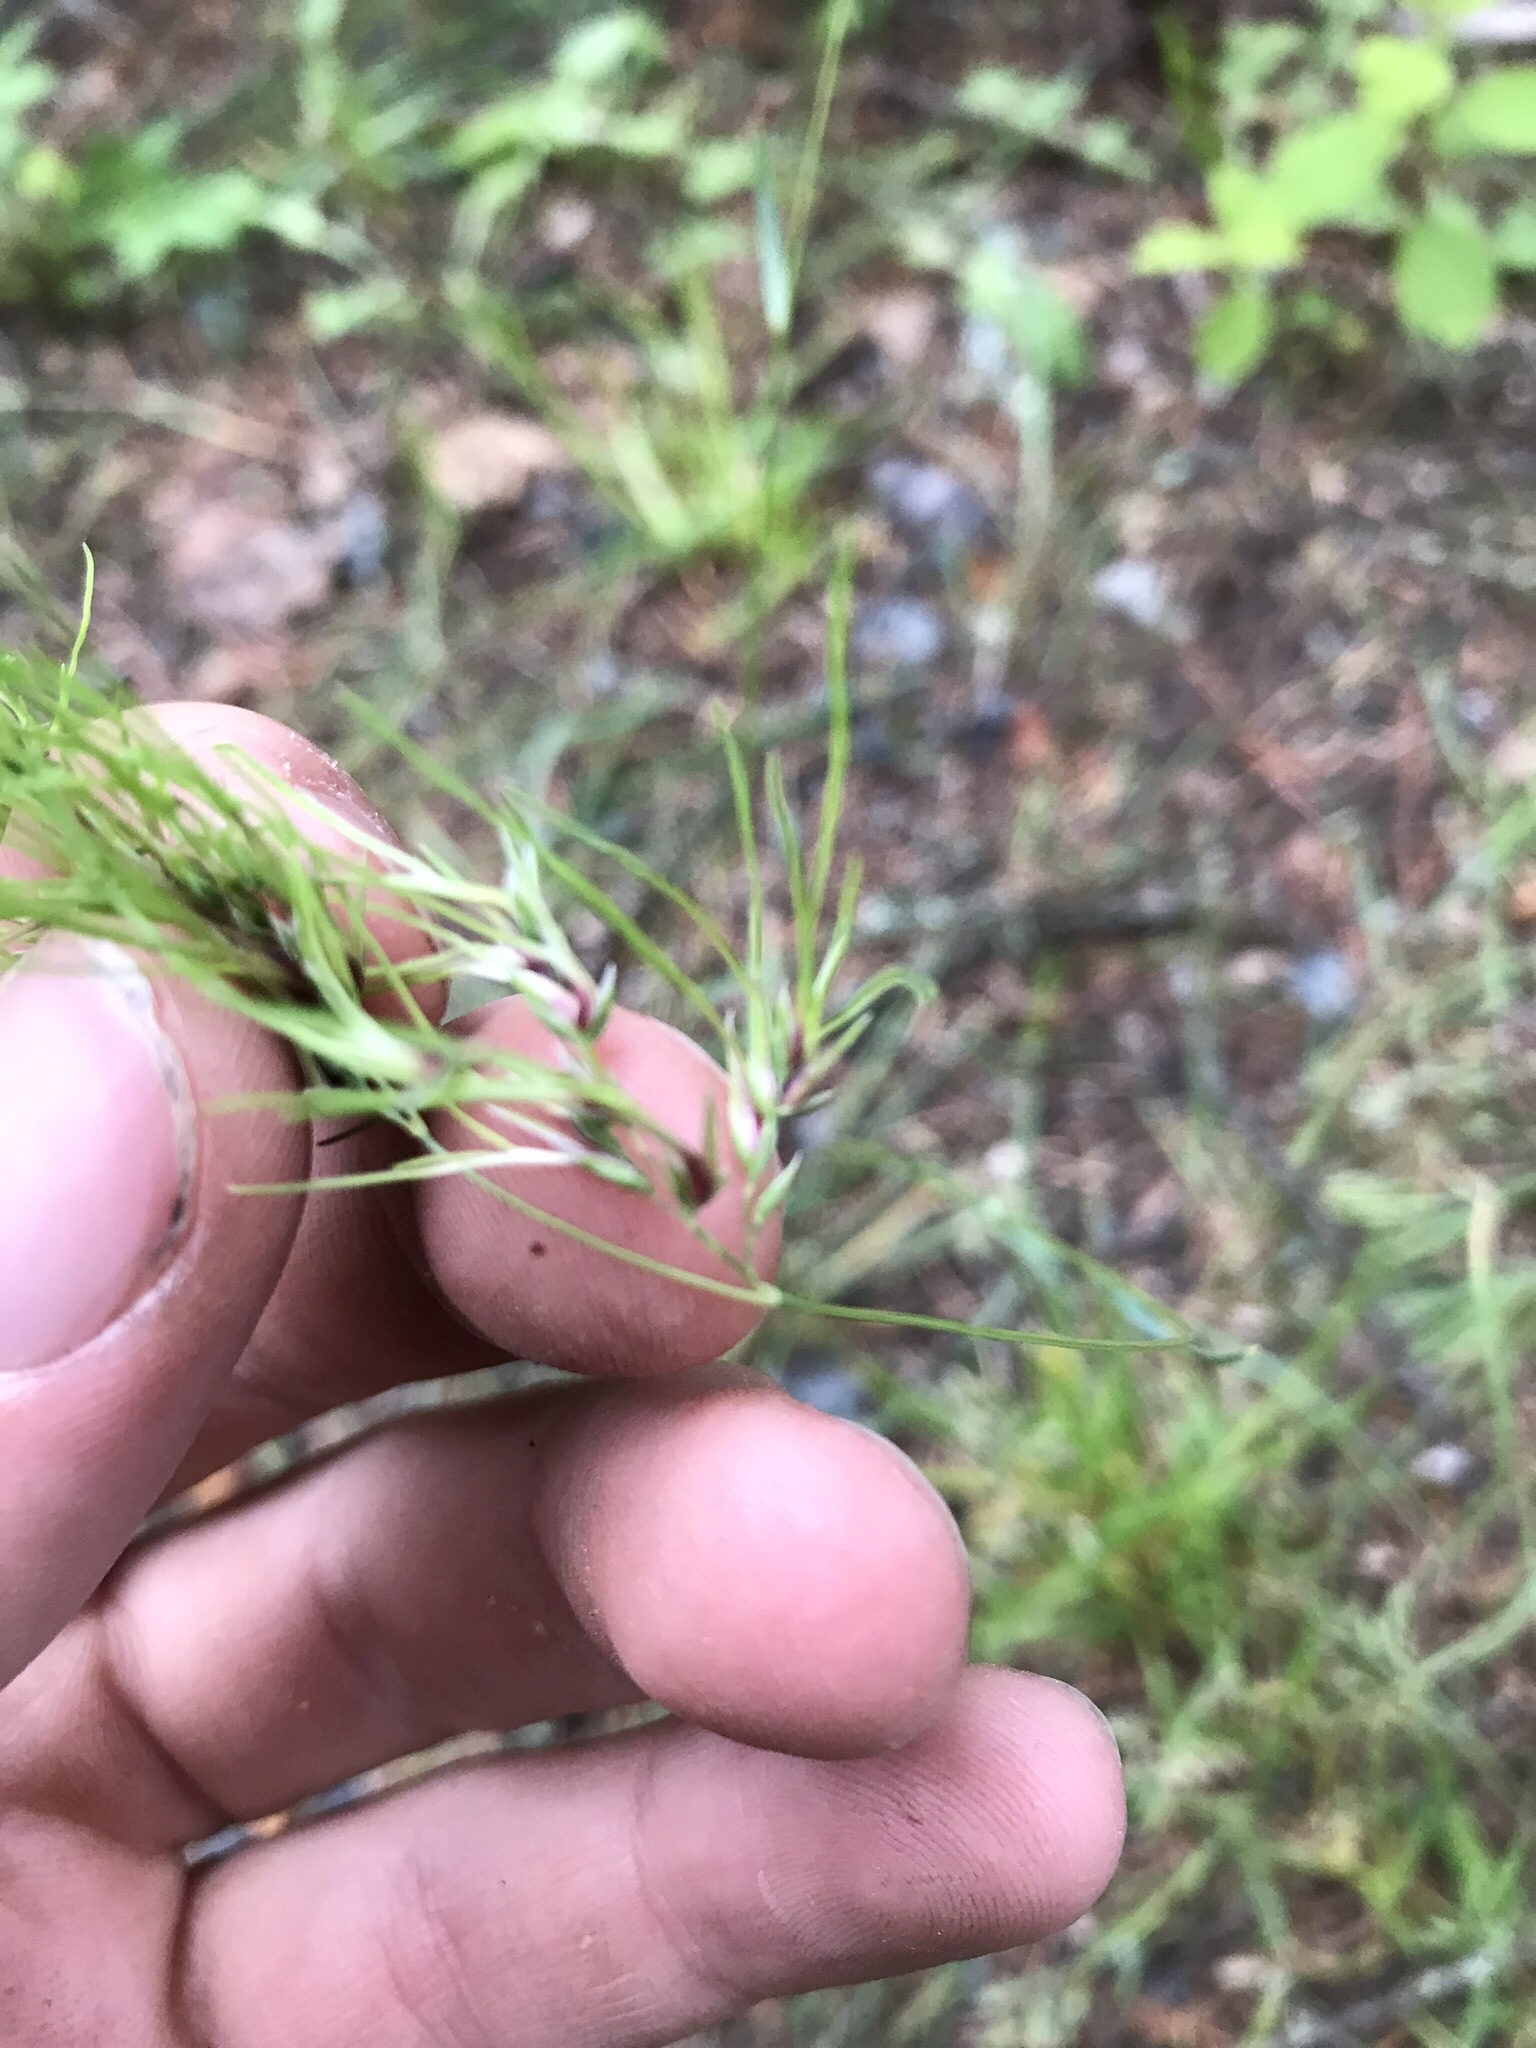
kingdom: Plantae
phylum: Tracheophyta
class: Liliopsida
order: Poales
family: Poaceae
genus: Poa
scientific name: Poa bulbosa
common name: Bulbous bluegrass
